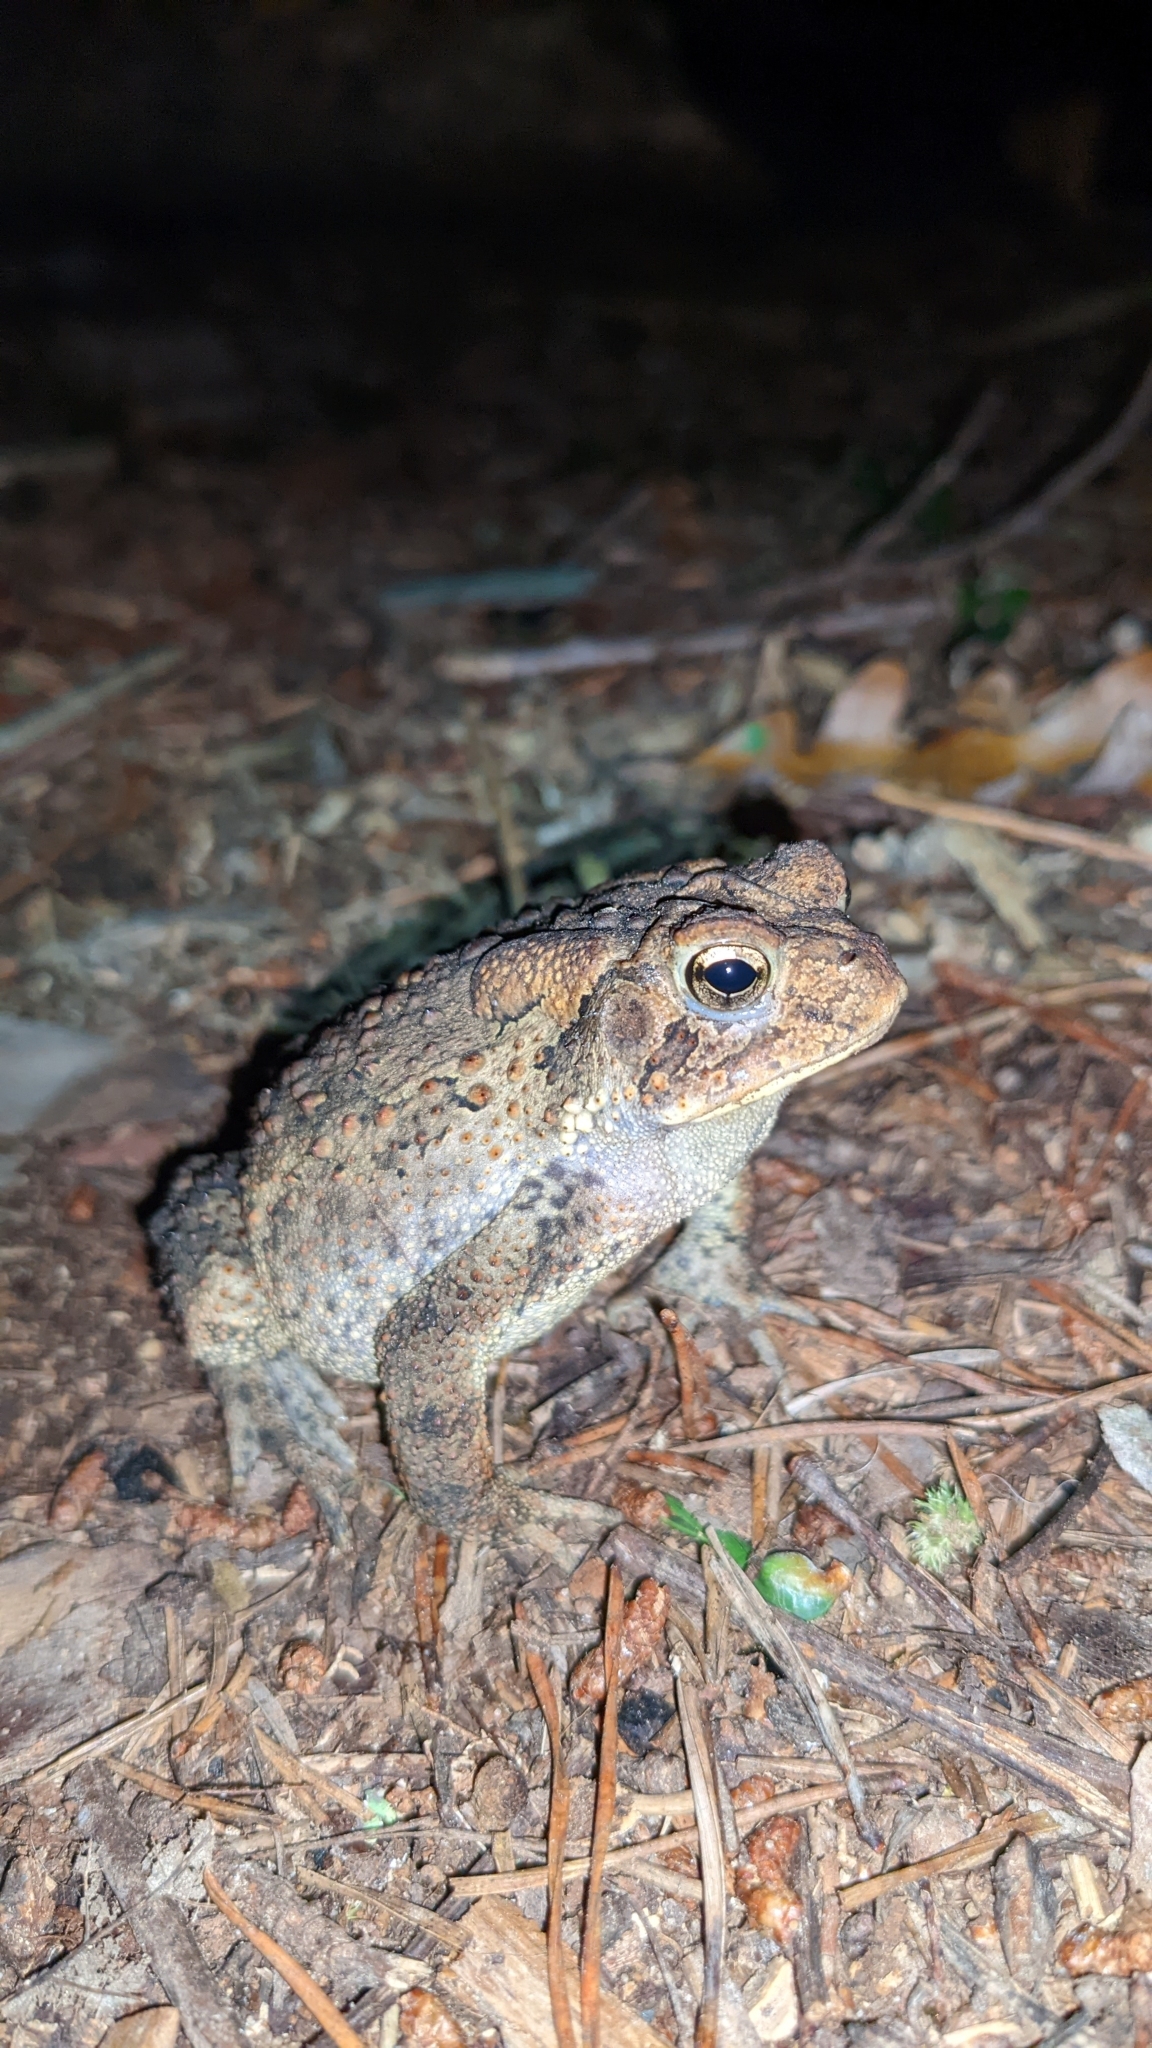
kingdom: Animalia
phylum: Chordata
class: Amphibia
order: Anura
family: Bufonidae
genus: Anaxyrus
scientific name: Anaxyrus americanus
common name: American toad
